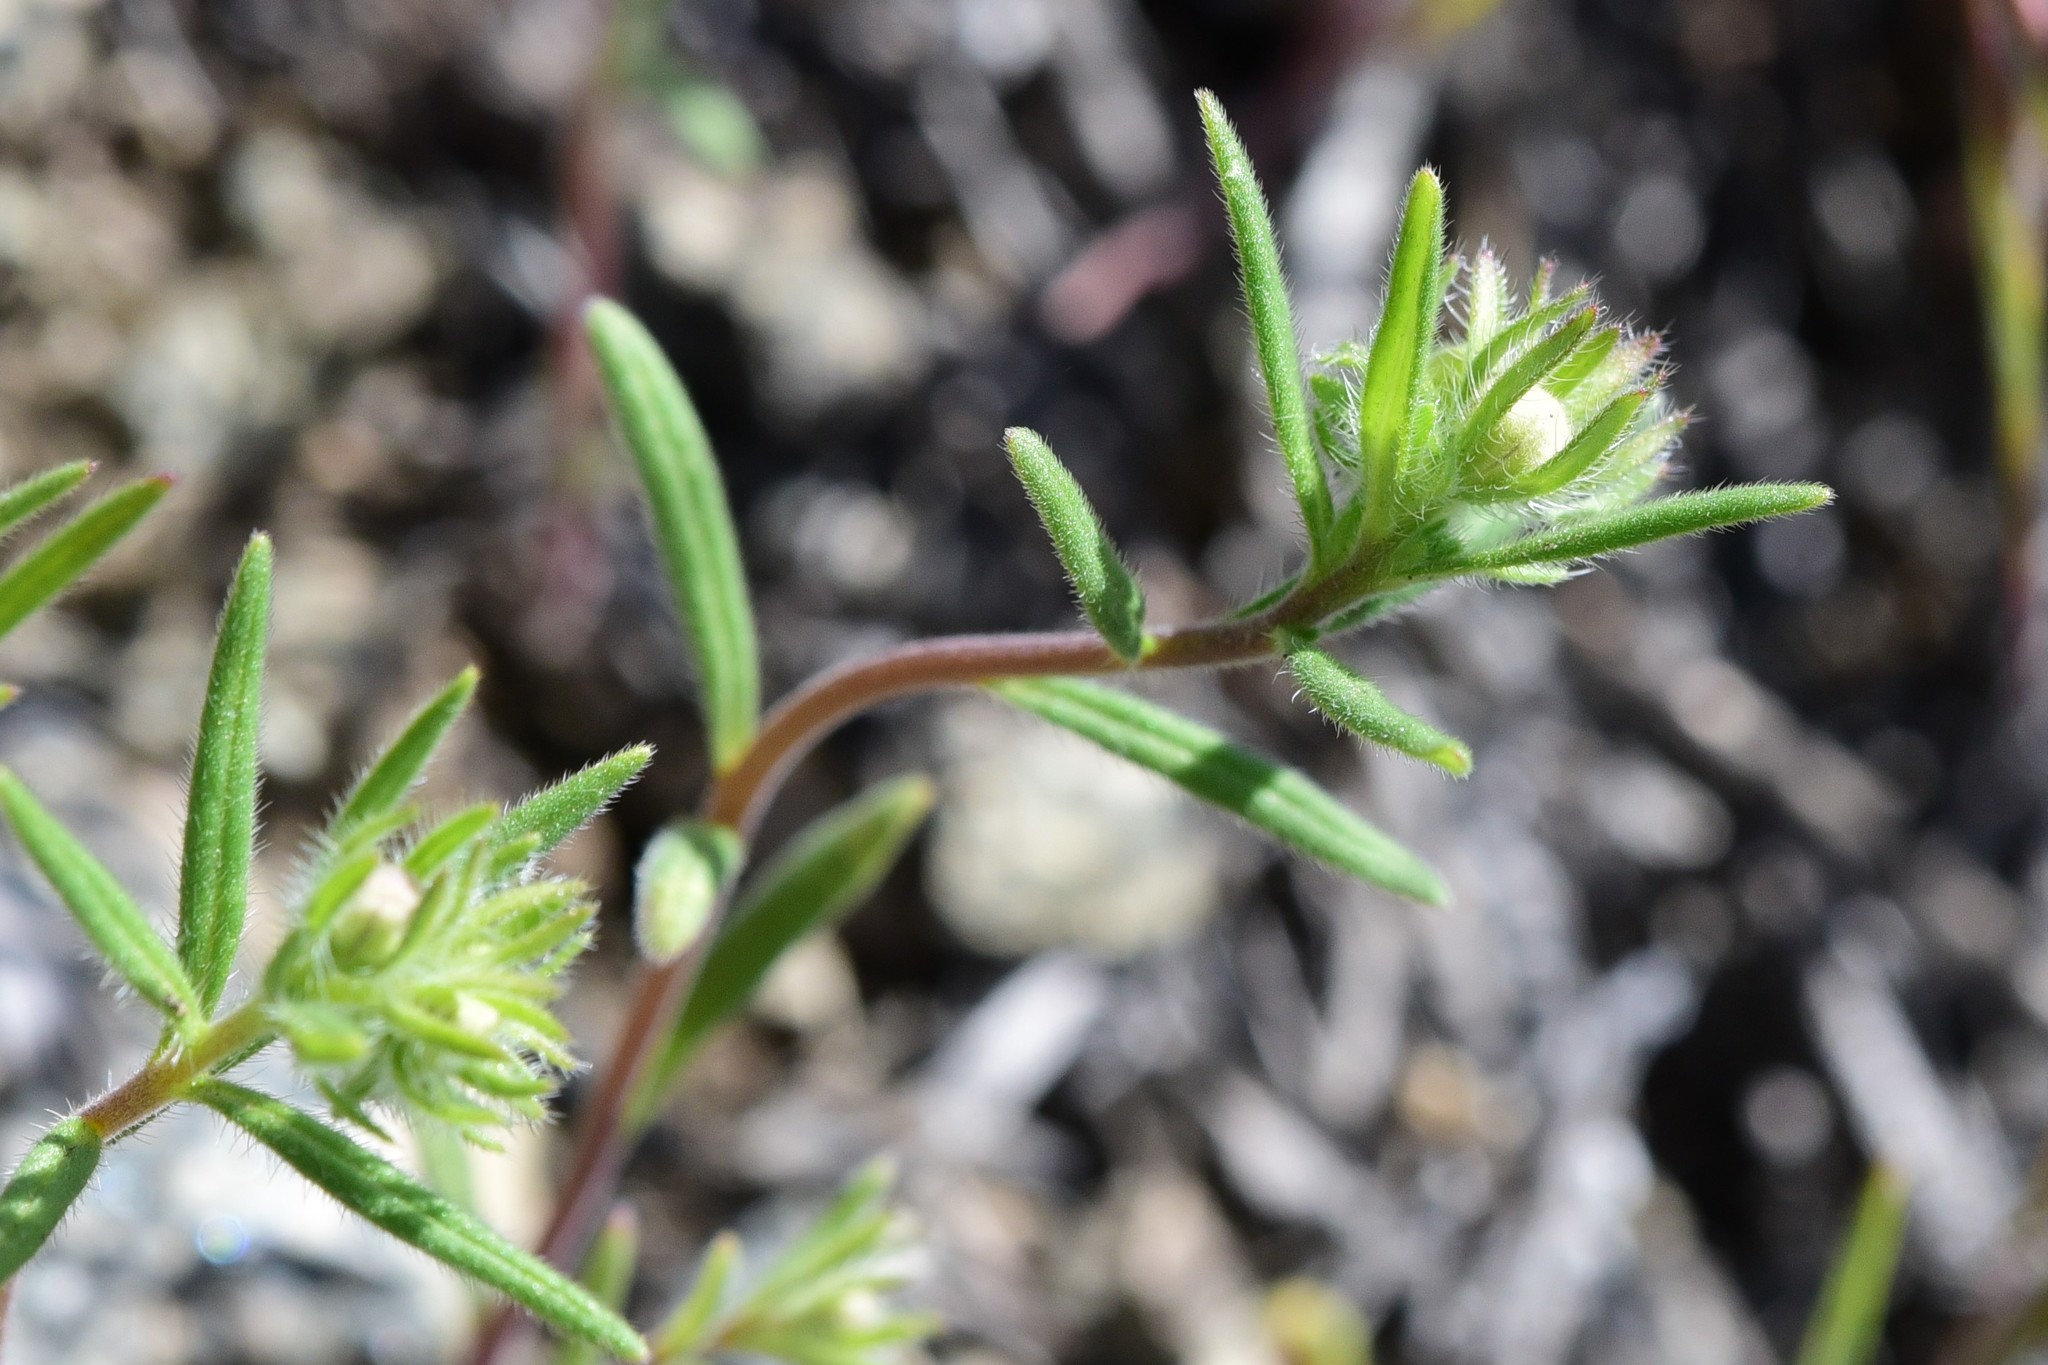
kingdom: Plantae
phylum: Tracheophyta
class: Magnoliopsida
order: Boraginales
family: Hydrophyllaceae
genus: Phacelia
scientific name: Phacelia linearis
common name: Linear-leaved phacelia
